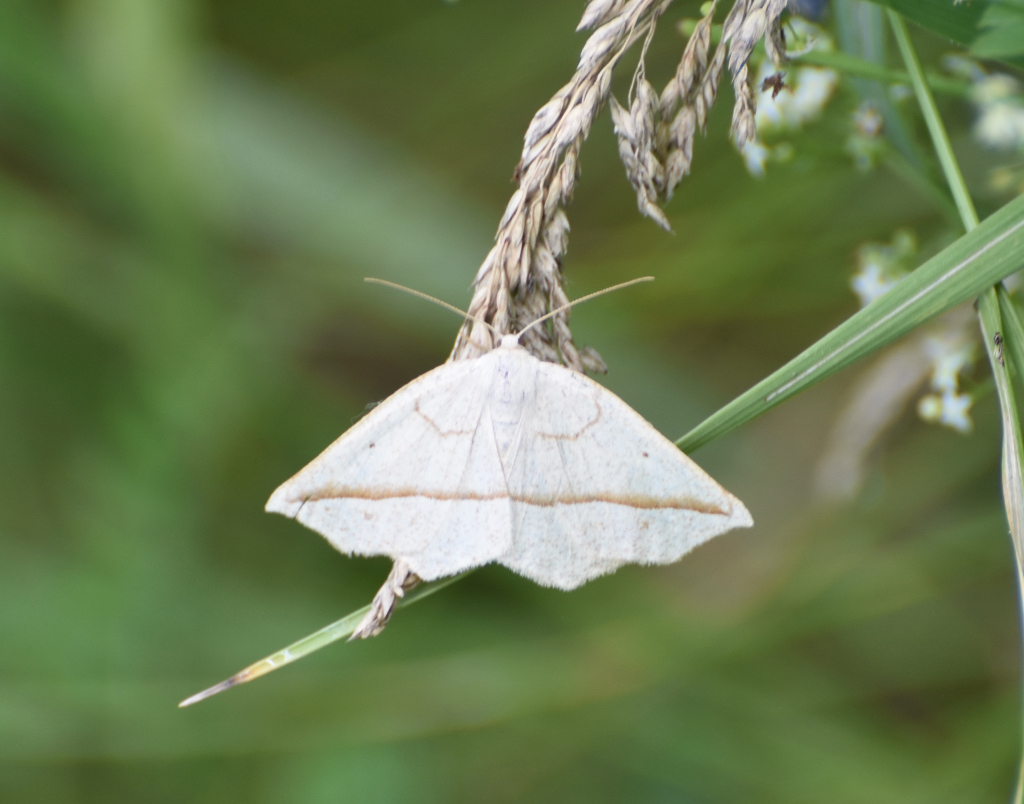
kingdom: Animalia
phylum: Arthropoda
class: Insecta
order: Lepidoptera
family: Geometridae
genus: Eusarca
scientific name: Eusarca confusaria
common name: Confused eusarca
